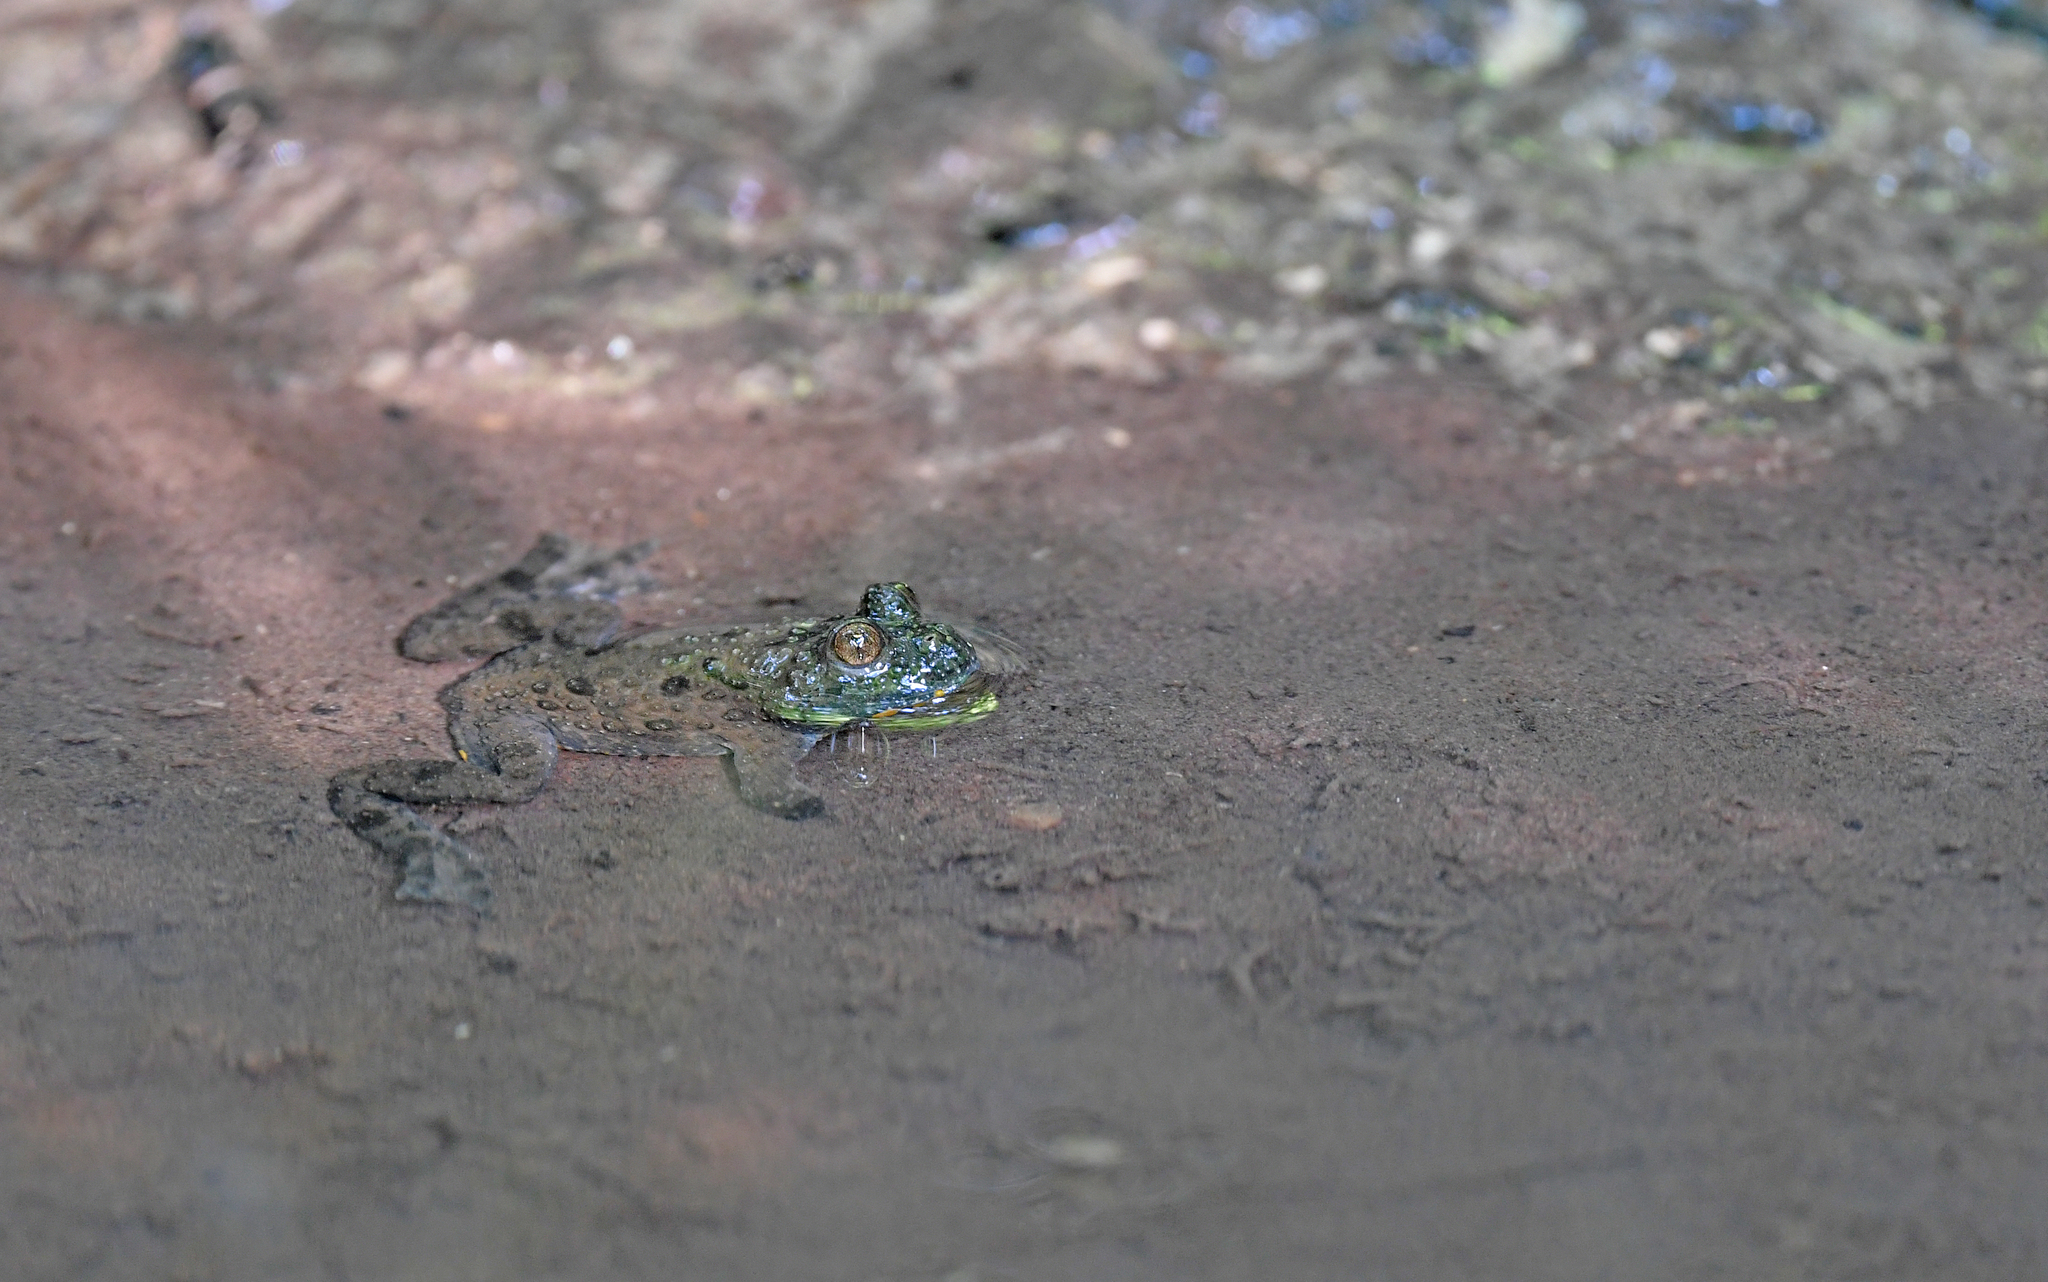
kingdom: Animalia
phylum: Chordata
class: Amphibia
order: Anura
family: Bombinatoridae
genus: Bombina
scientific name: Bombina variegata
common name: Yellow-bellied toad
